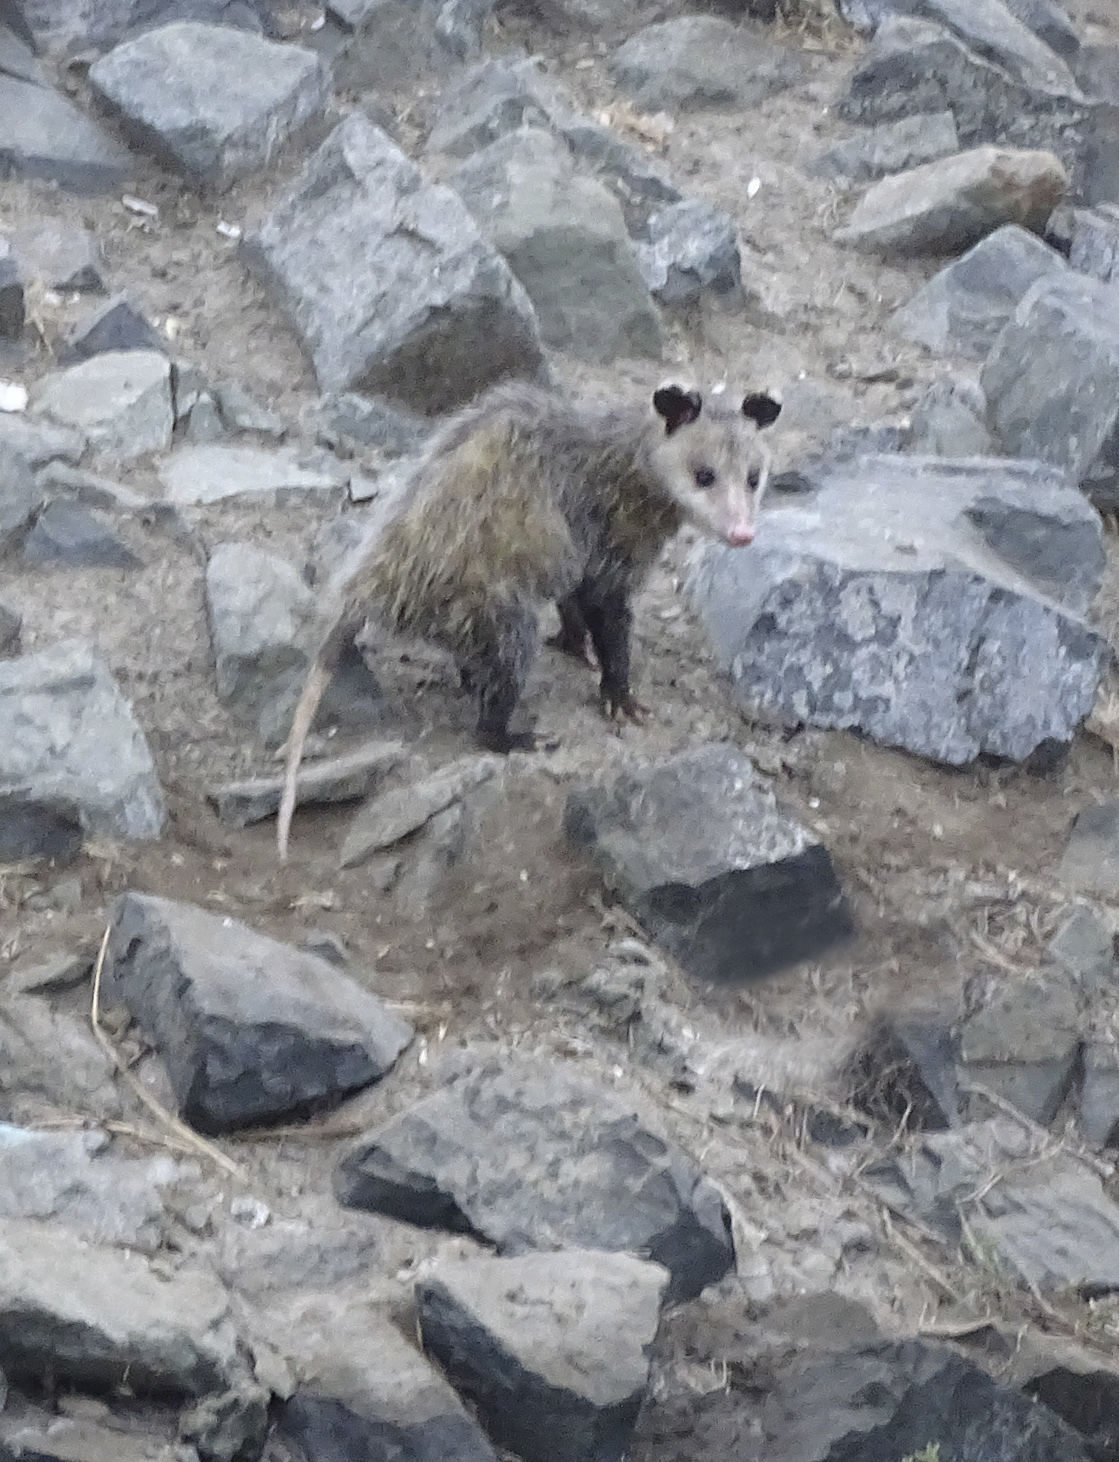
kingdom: Animalia
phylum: Chordata
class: Mammalia
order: Didelphimorphia
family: Didelphidae
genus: Didelphis
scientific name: Didelphis virginiana
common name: Virginia opossum
